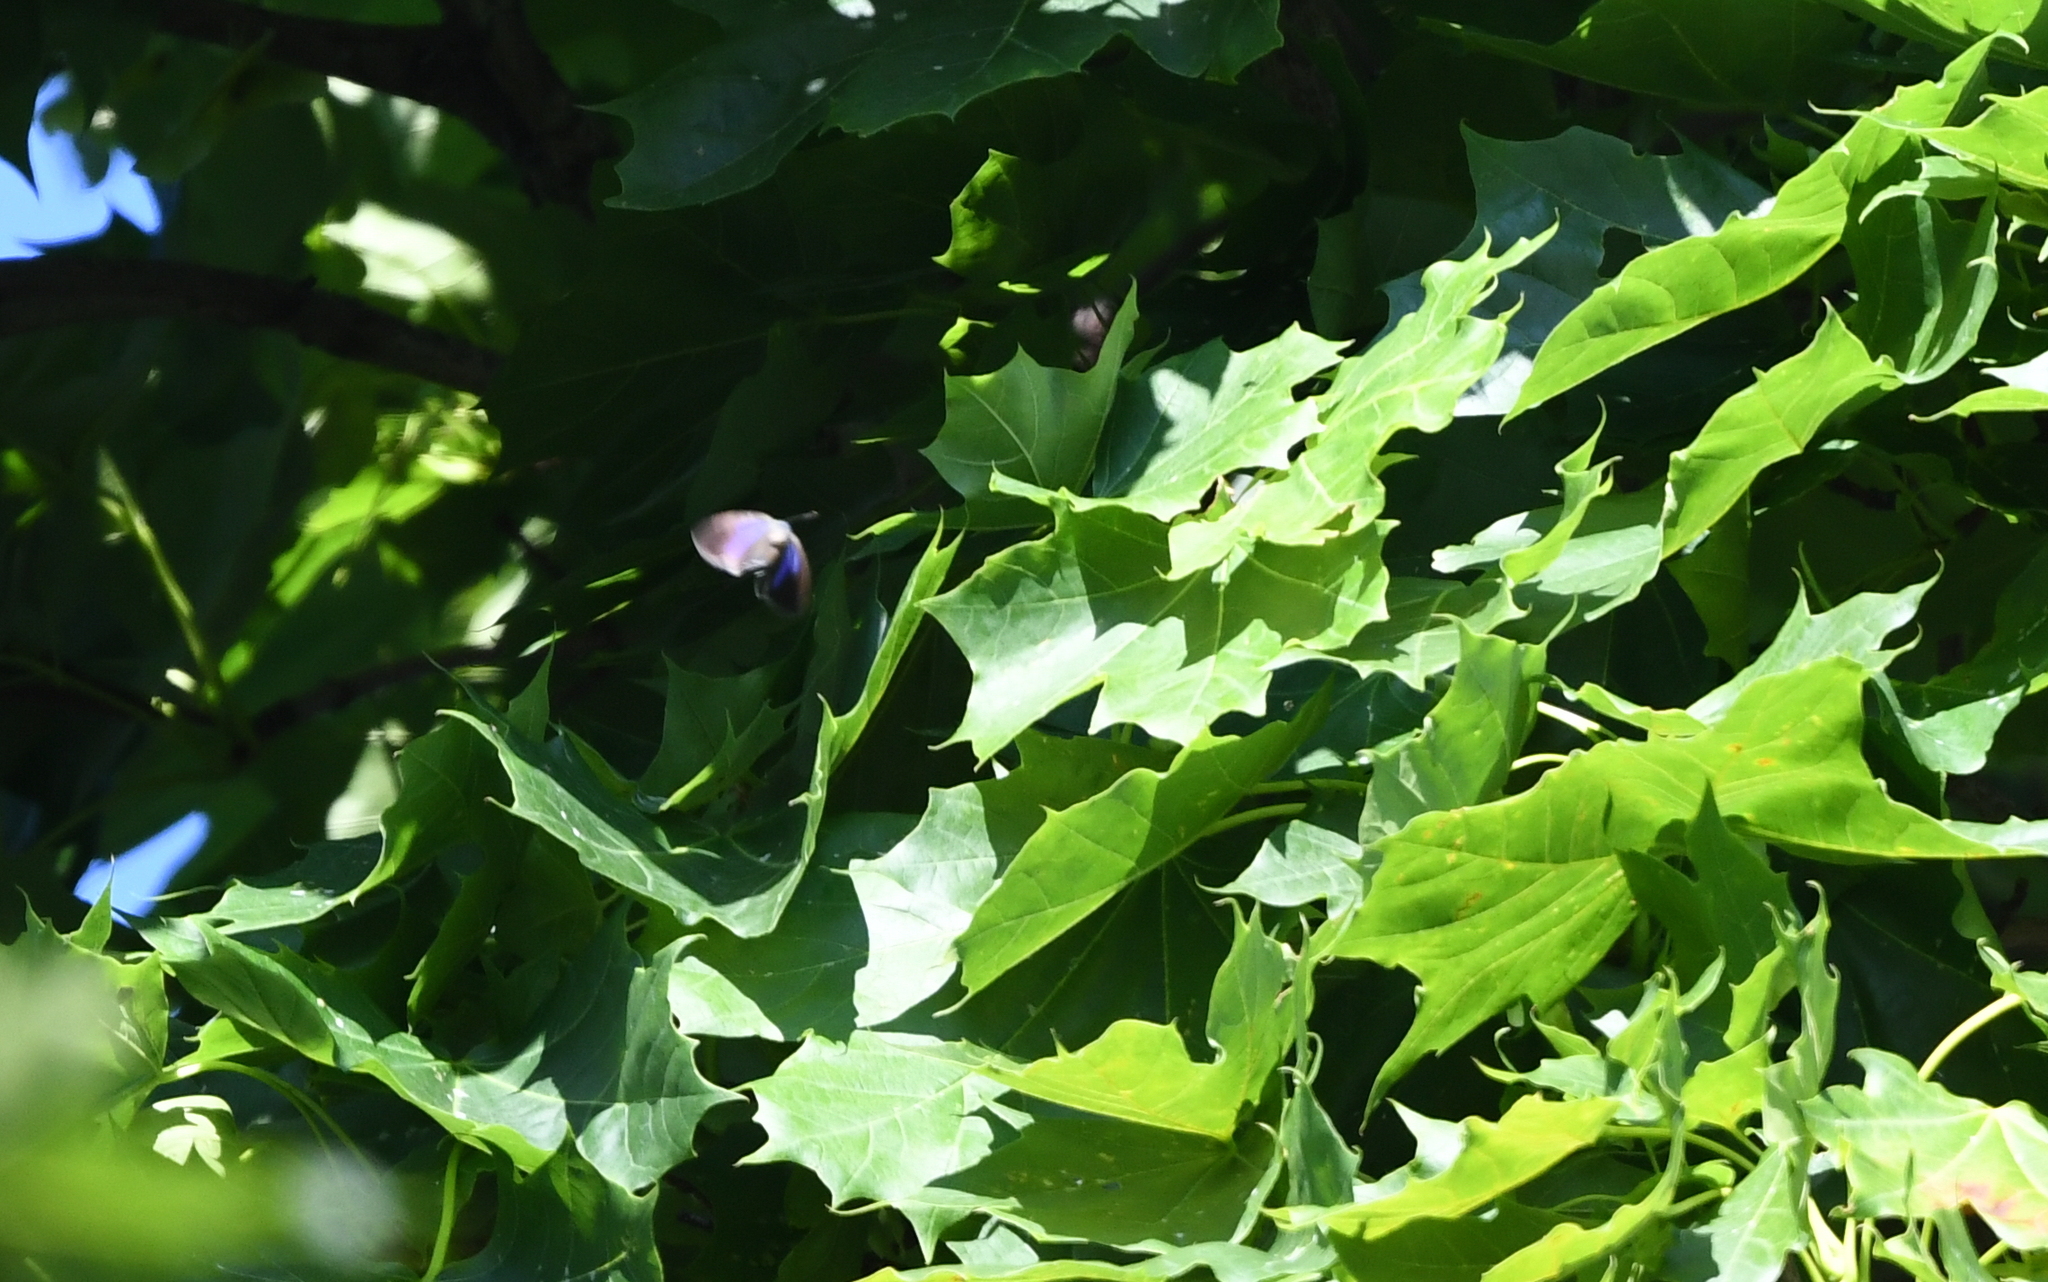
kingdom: Animalia
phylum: Arthropoda
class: Insecta
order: Lepidoptera
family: Lycaenidae
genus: Quercusia
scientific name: Quercusia quercus
